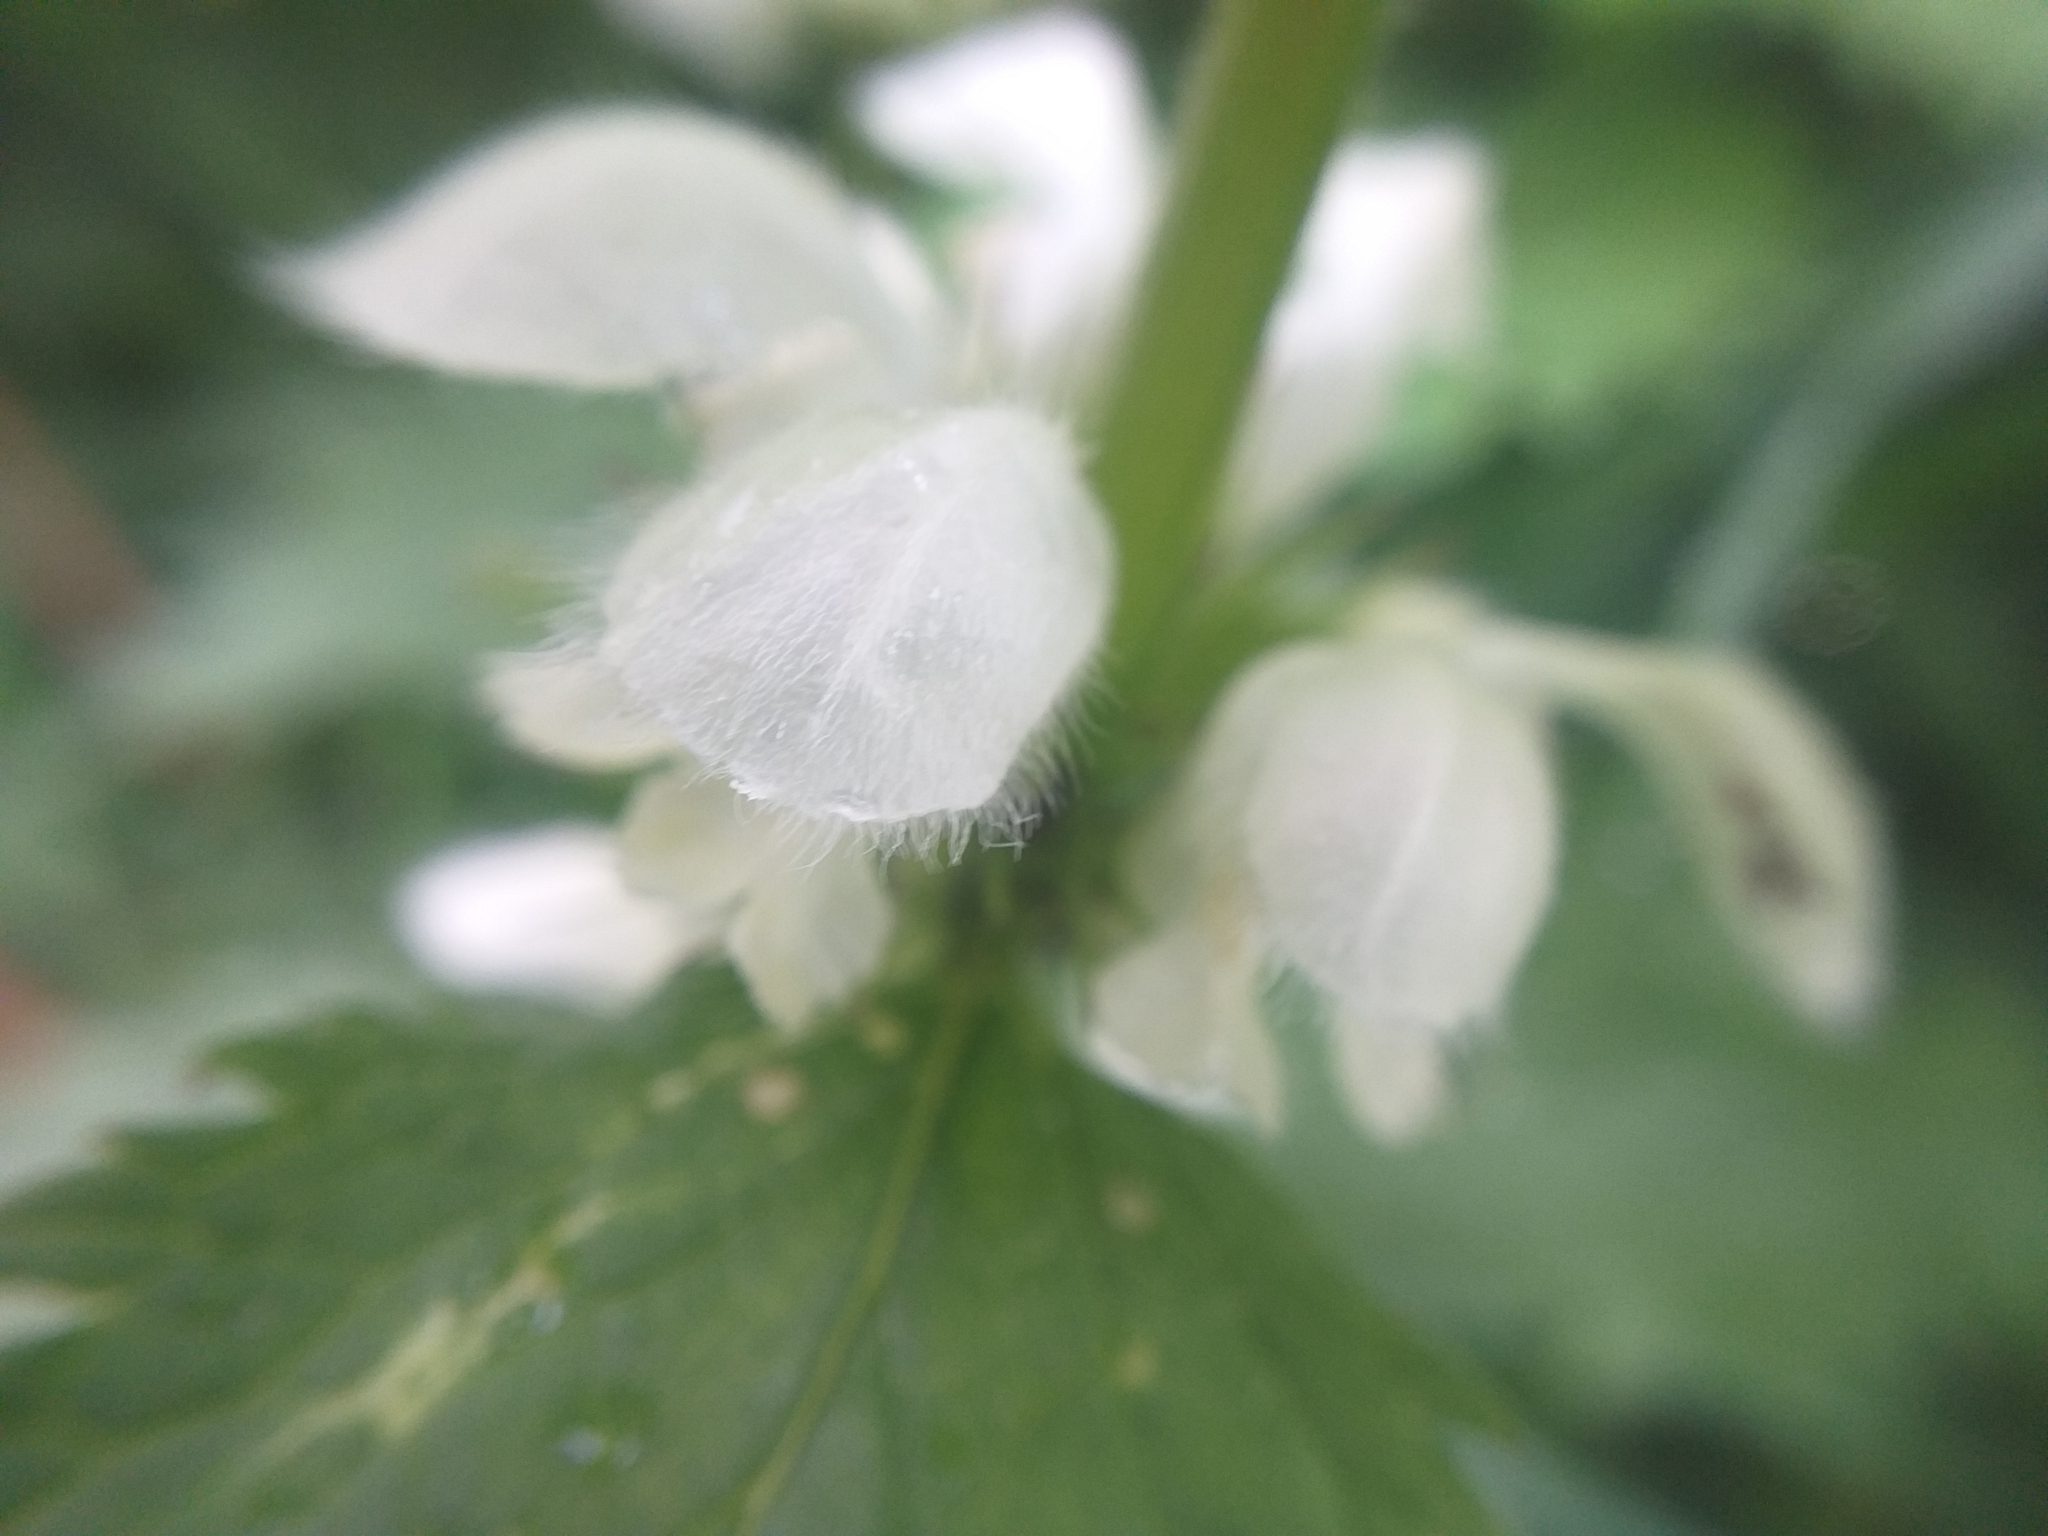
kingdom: Plantae
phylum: Tracheophyta
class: Magnoliopsida
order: Lamiales
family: Lamiaceae
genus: Lamium
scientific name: Lamium album
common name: White dead-nettle
